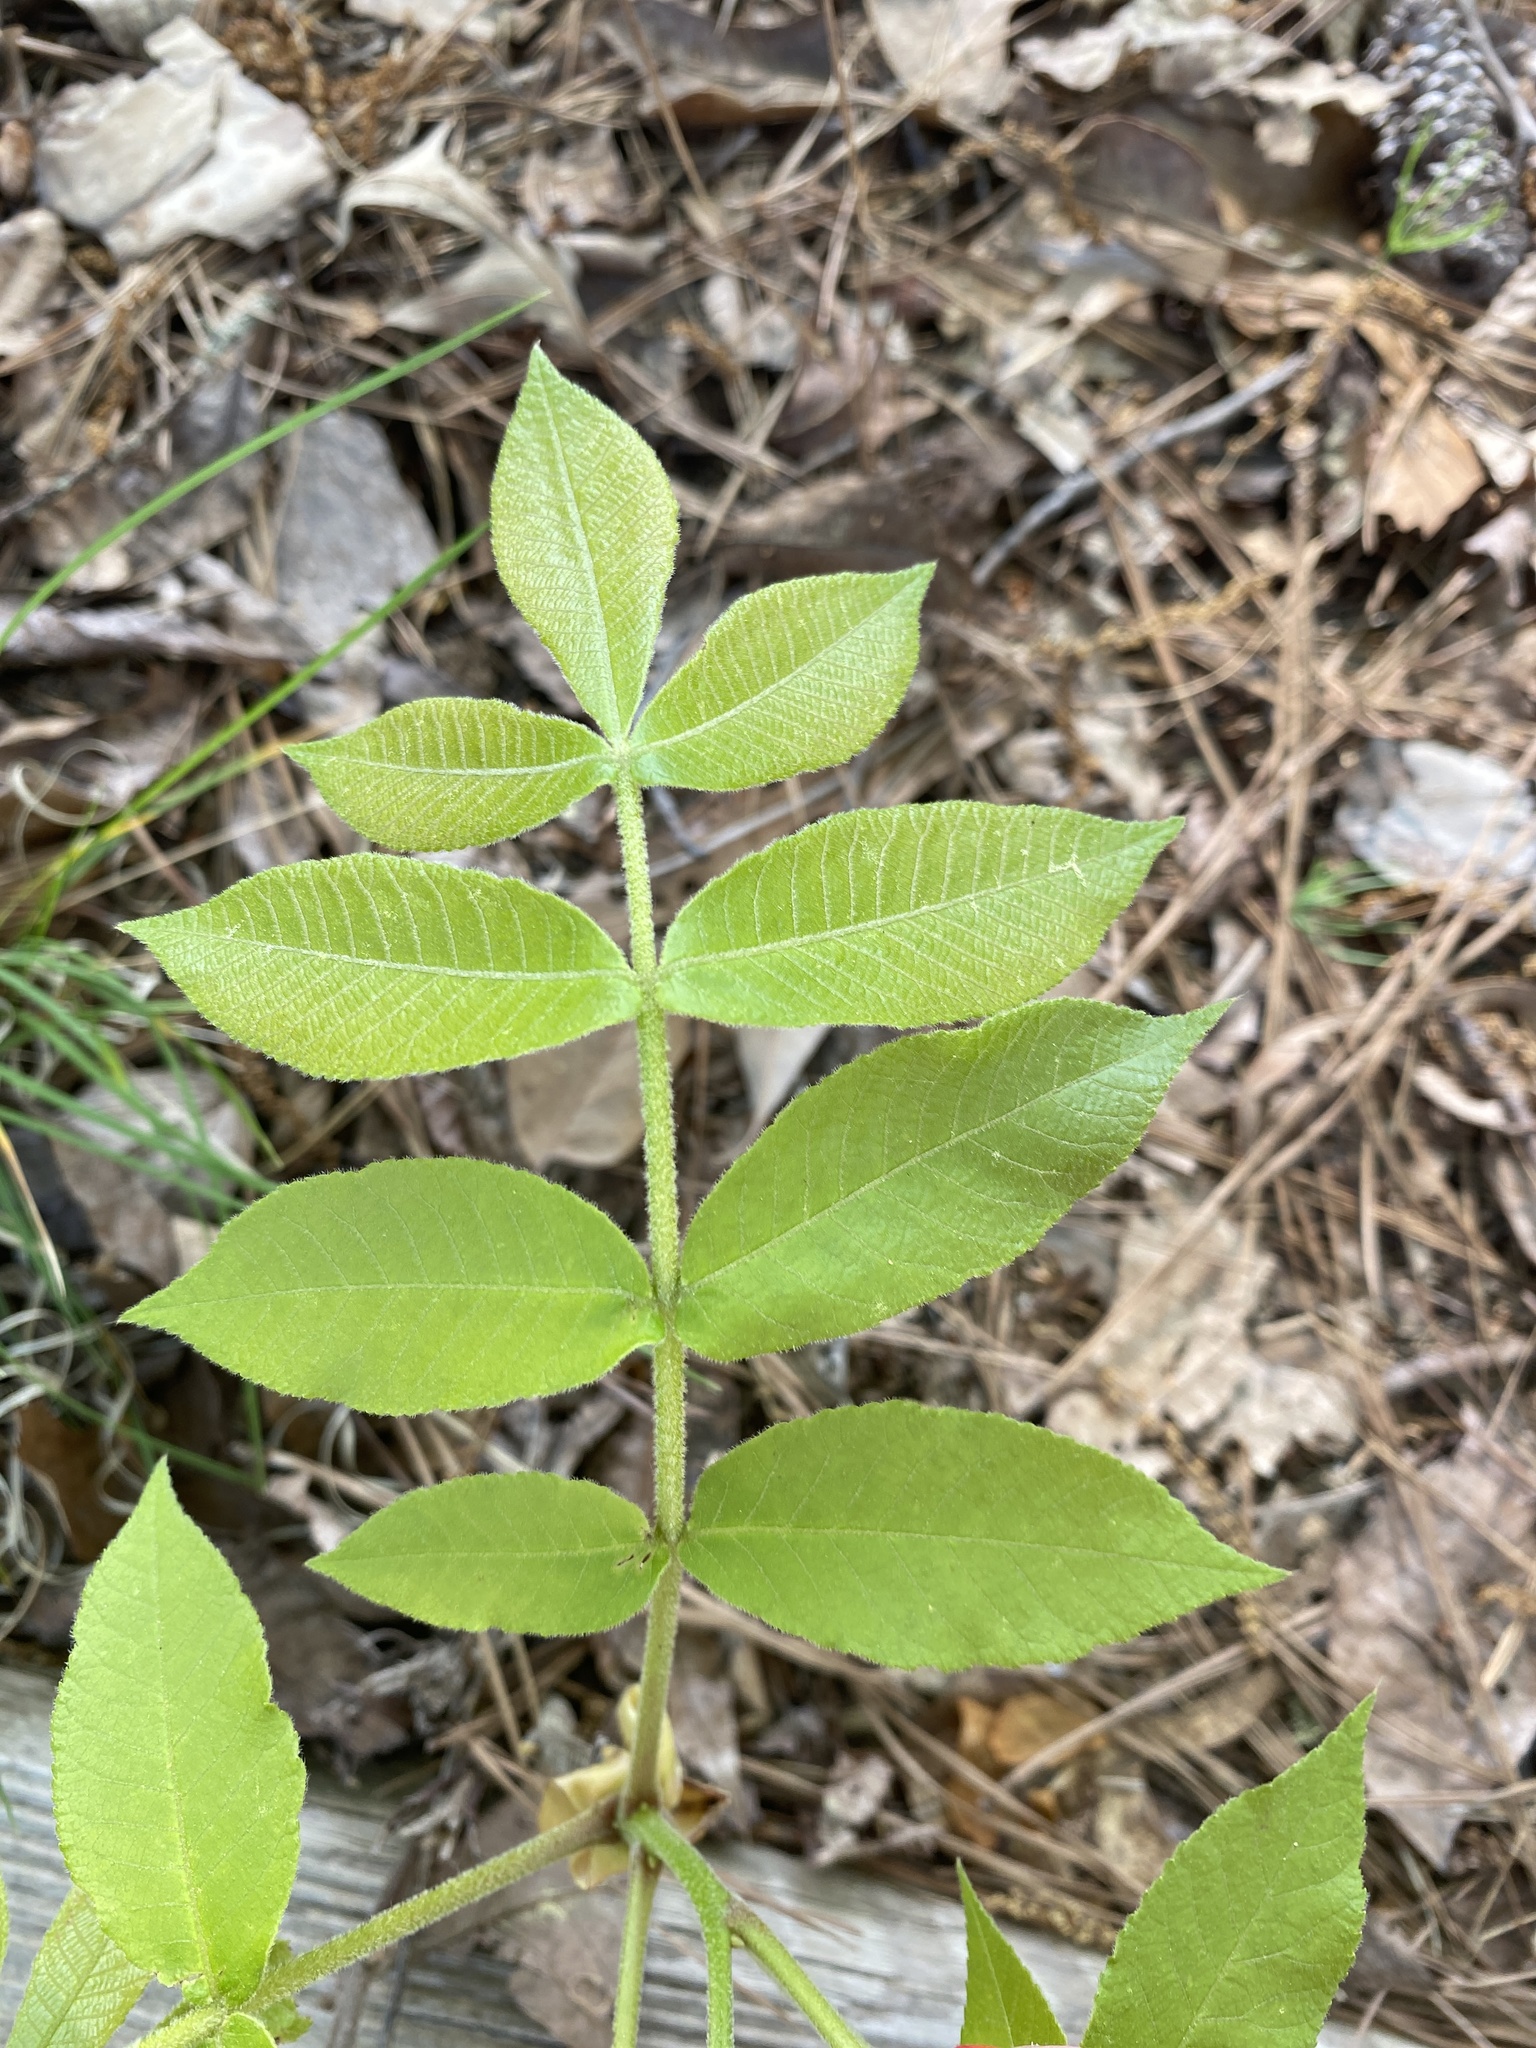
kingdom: Plantae
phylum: Tracheophyta
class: Magnoliopsida
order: Fagales
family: Juglandaceae
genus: Carya
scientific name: Carya alba
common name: Mockernut hickory
